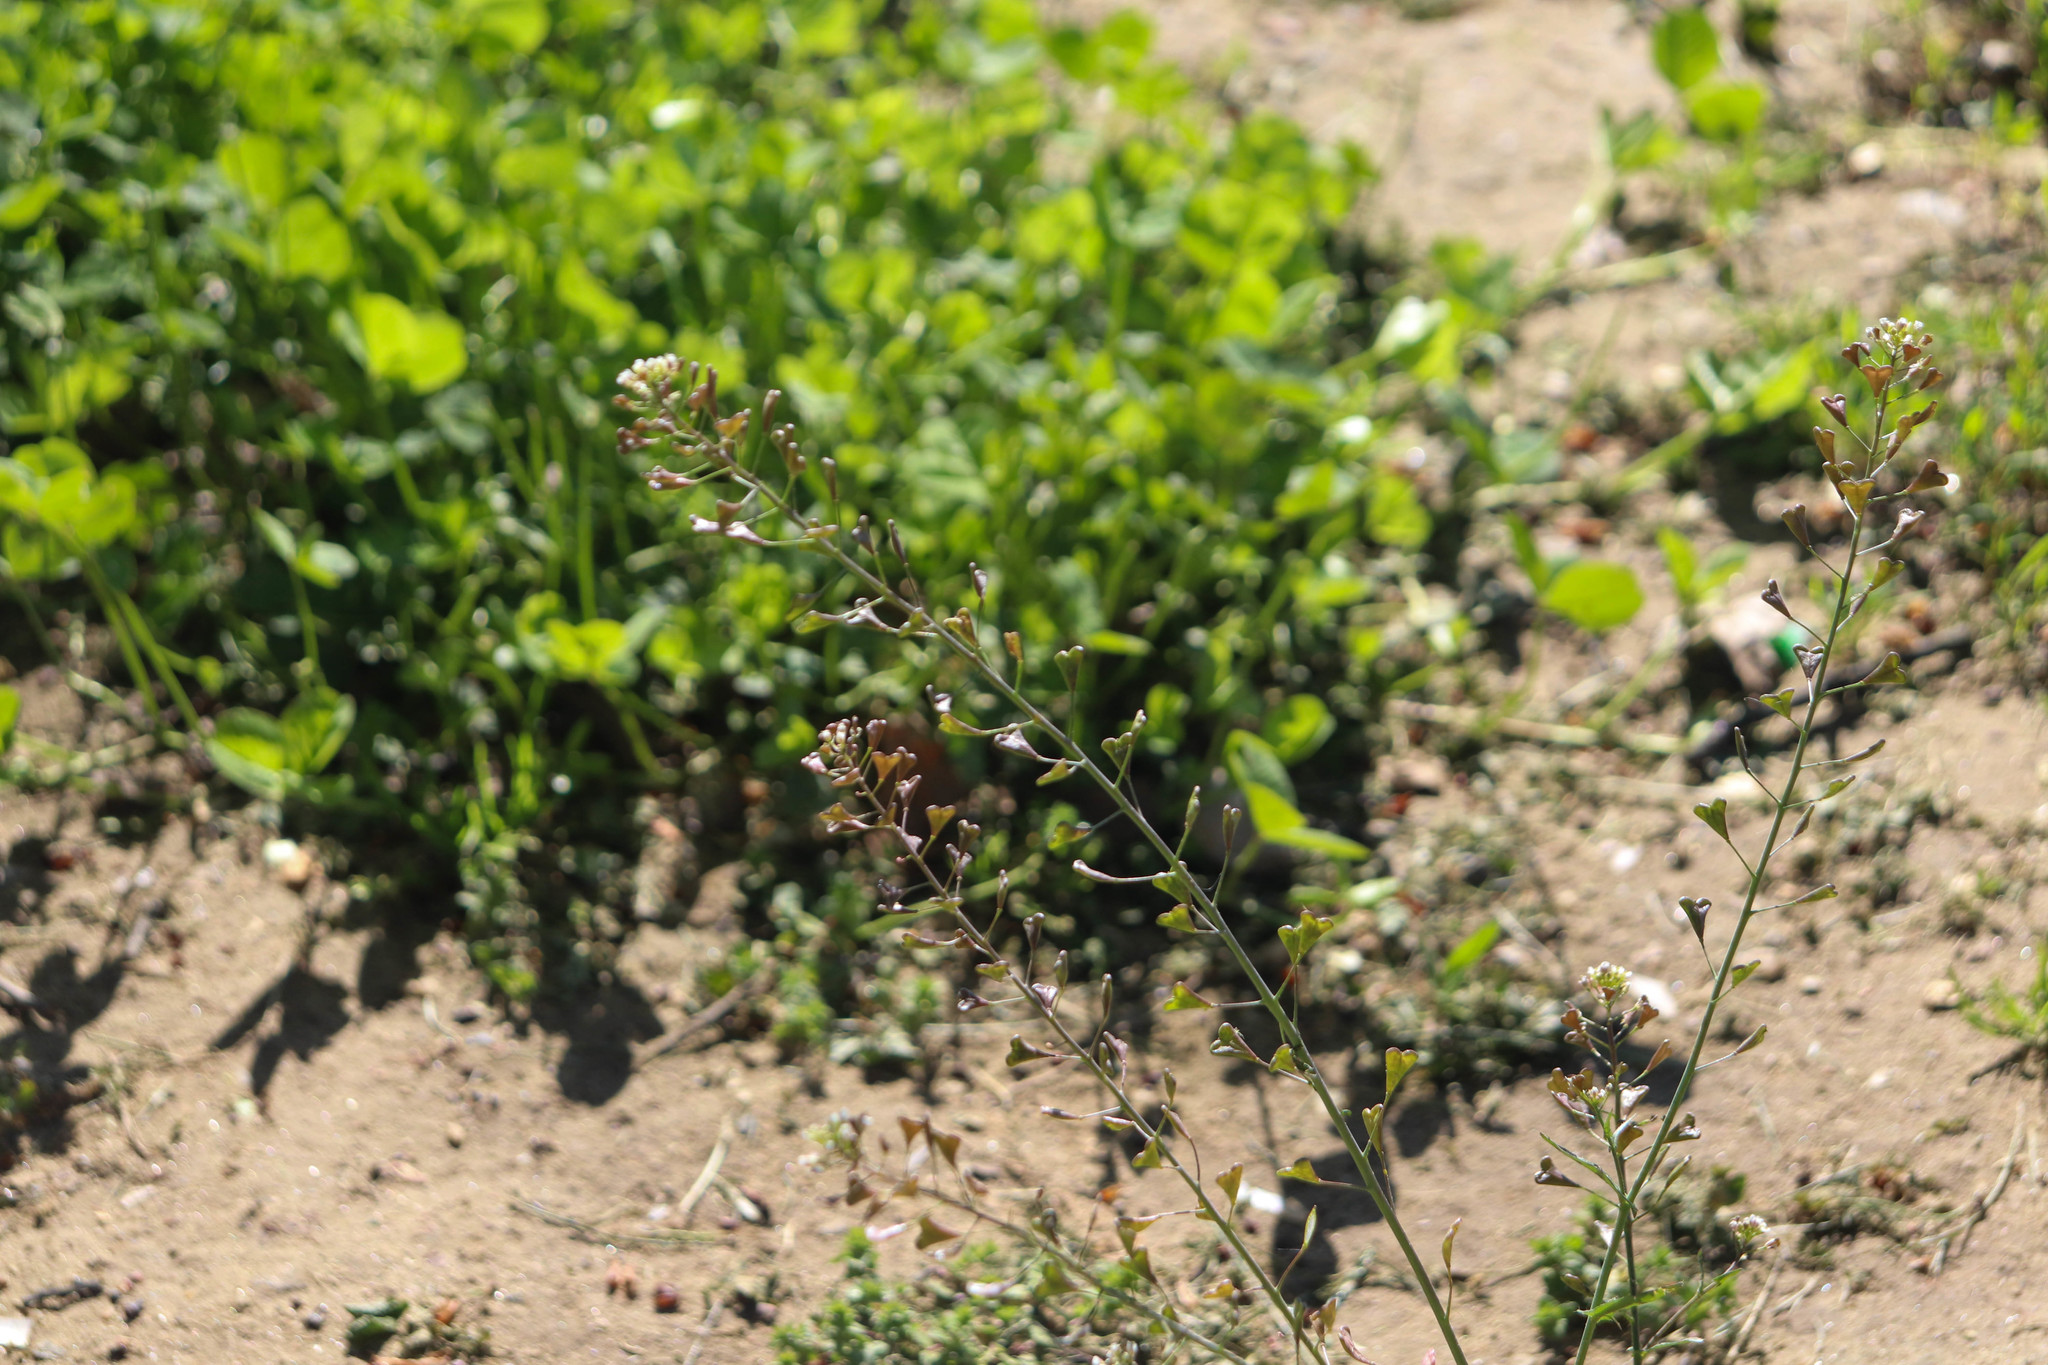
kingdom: Plantae
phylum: Tracheophyta
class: Magnoliopsida
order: Brassicales
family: Brassicaceae
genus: Capsella
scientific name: Capsella bursa-pastoris
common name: Shepherd's purse
